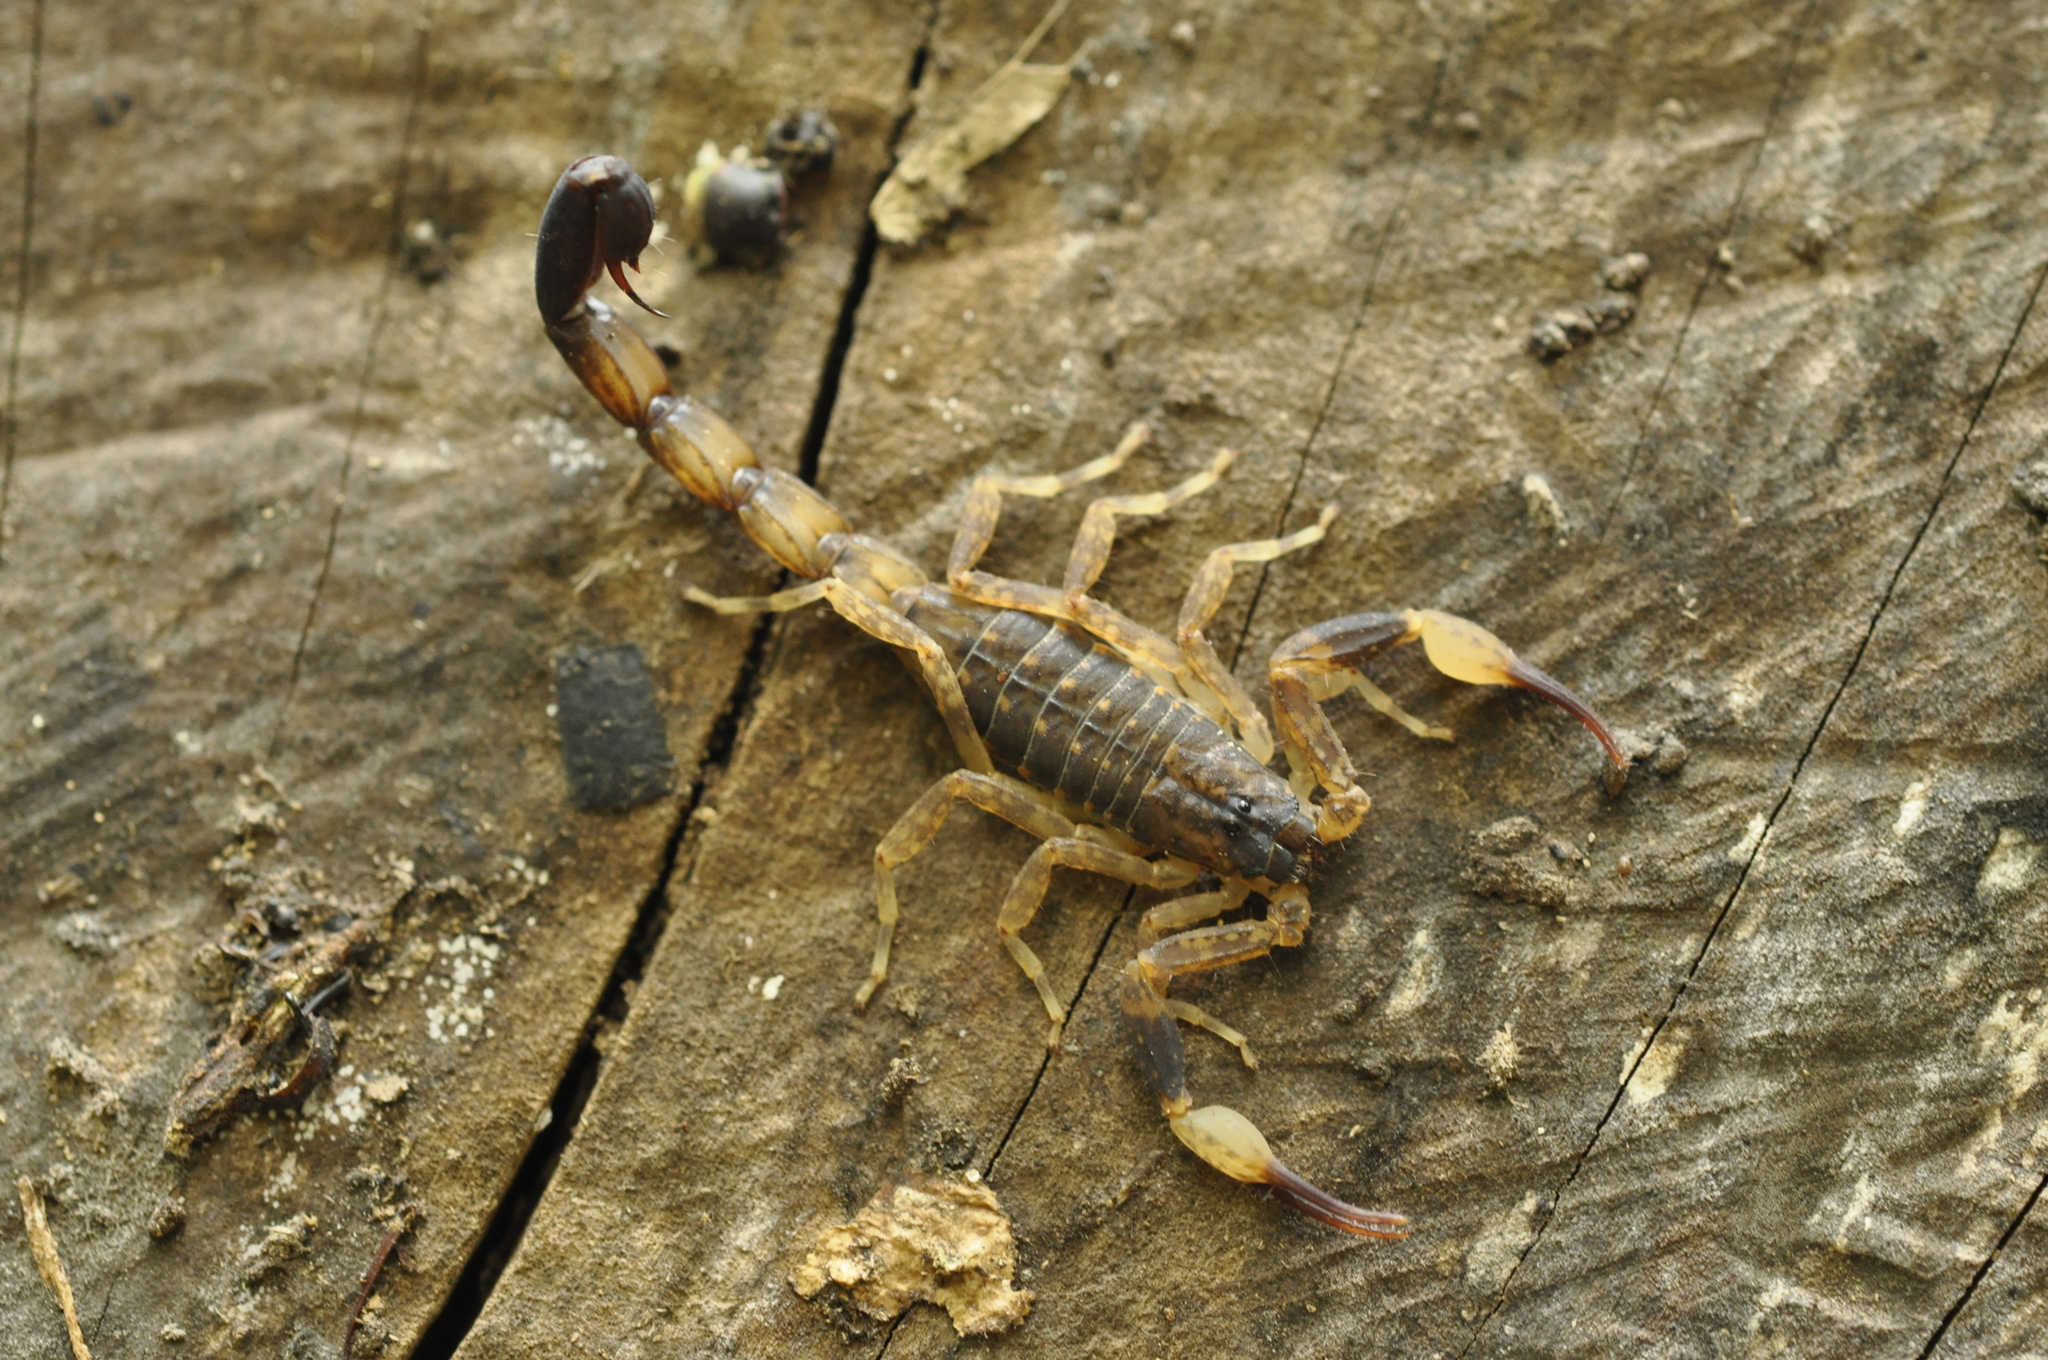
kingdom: Animalia
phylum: Arthropoda
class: Arachnida
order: Scorpiones
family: Buthidae
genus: Lychas
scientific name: Lychas mucronatus
